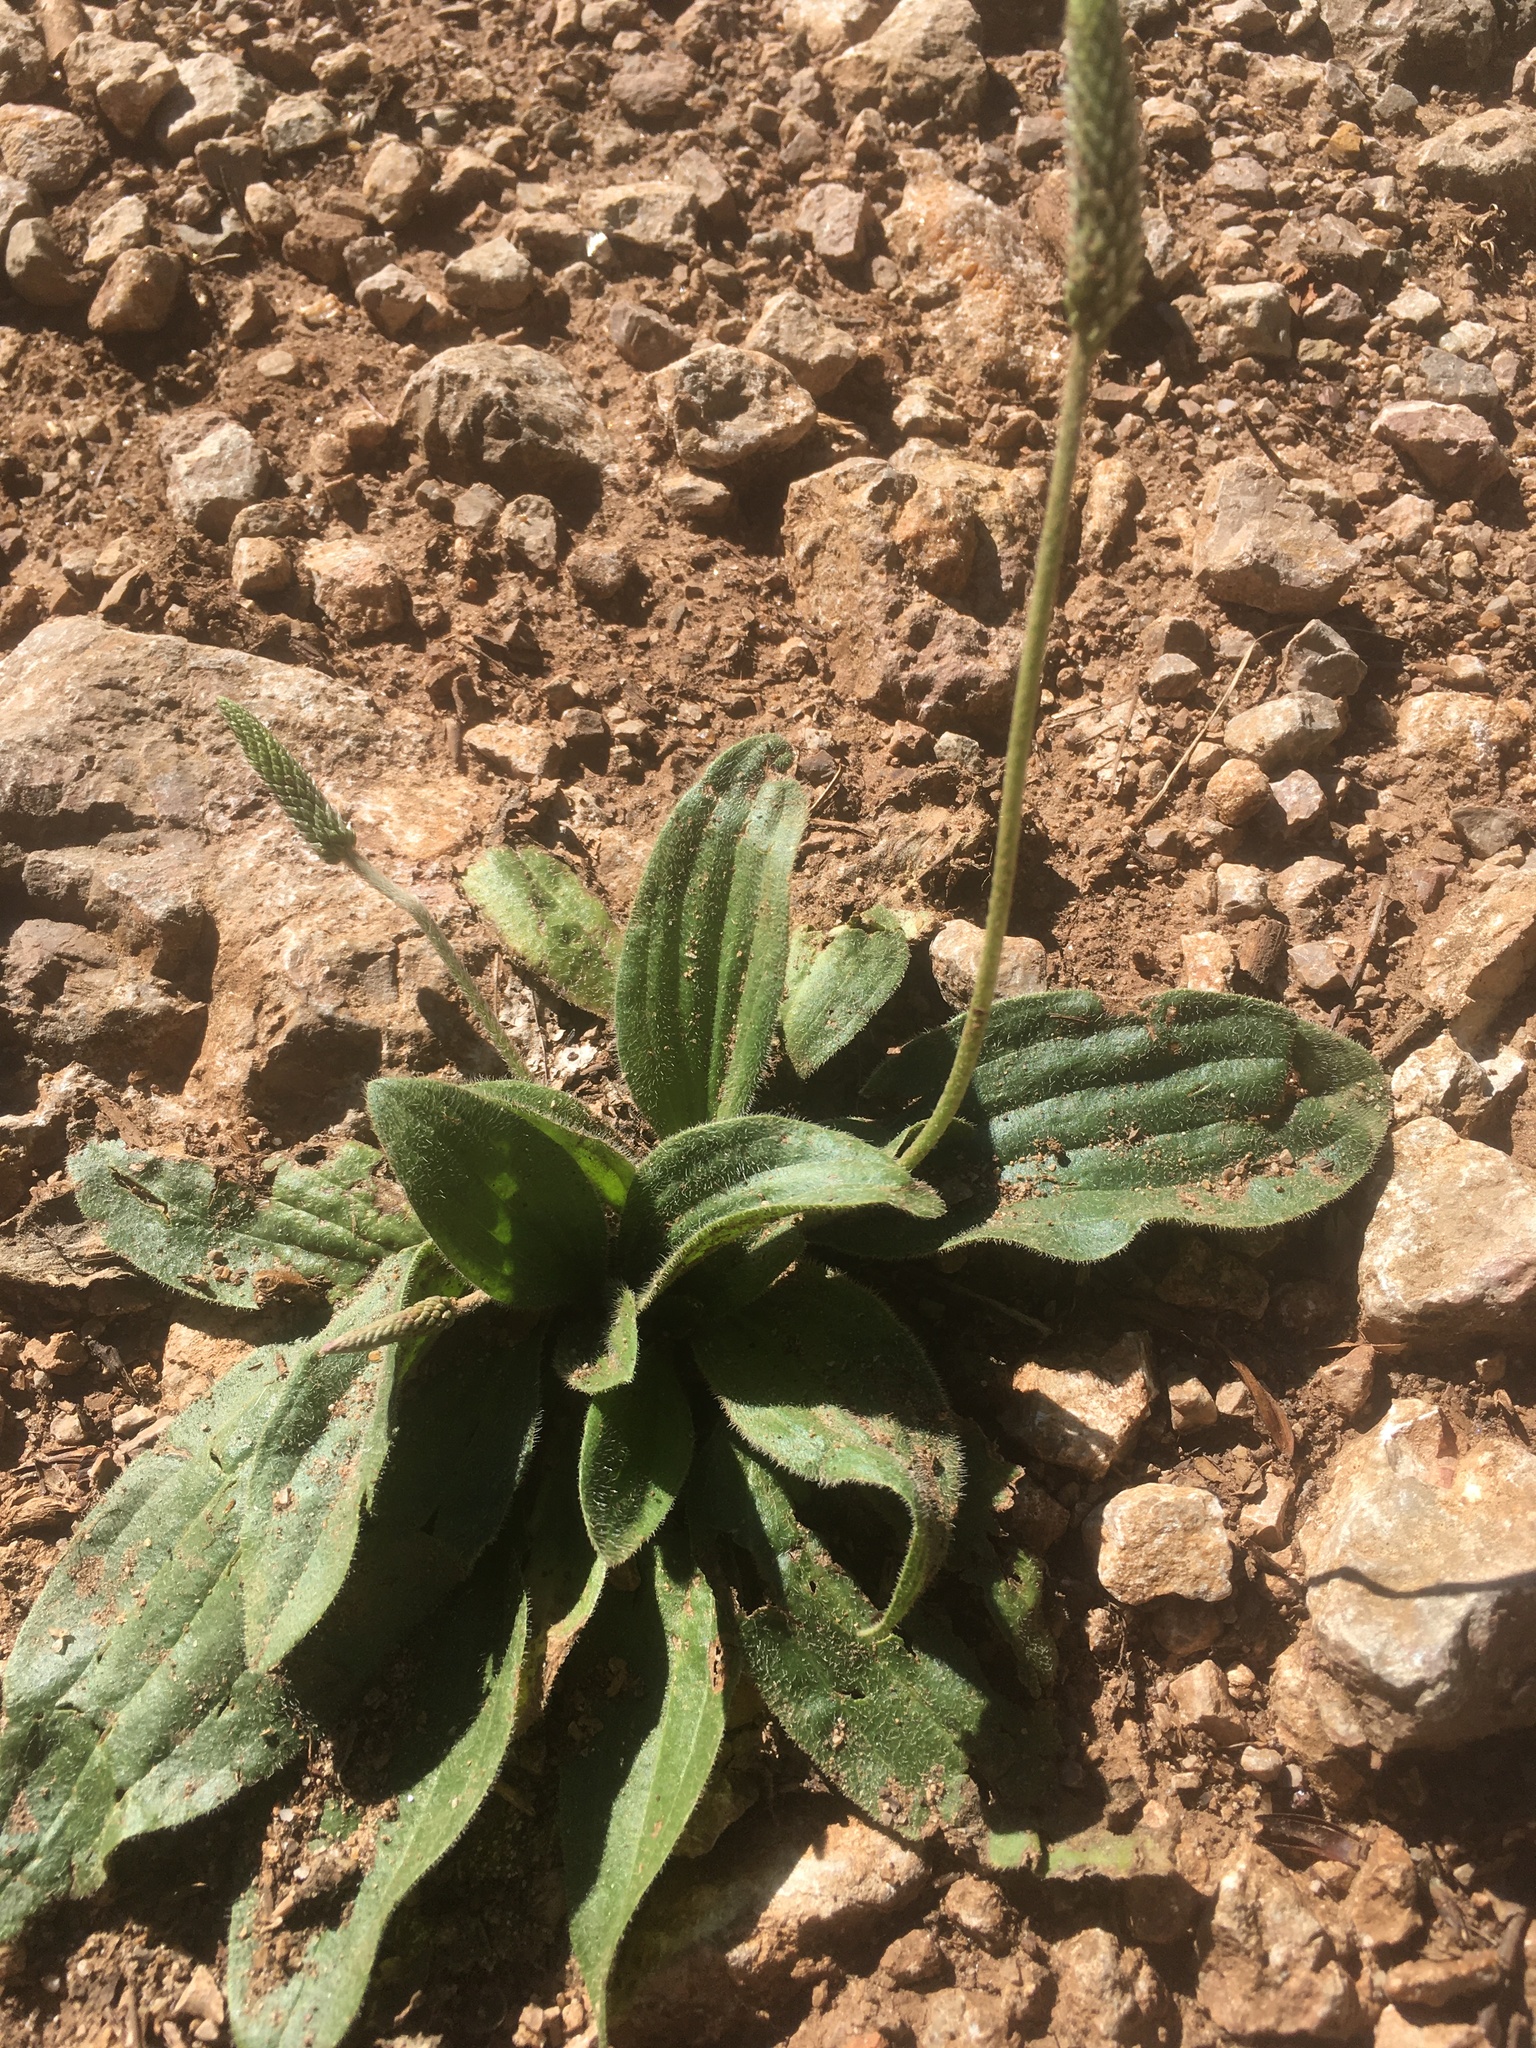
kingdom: Plantae
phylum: Tracheophyta
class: Magnoliopsida
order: Lamiales
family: Plantaginaceae
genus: Plantago
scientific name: Plantago media
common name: Hoary plantain
